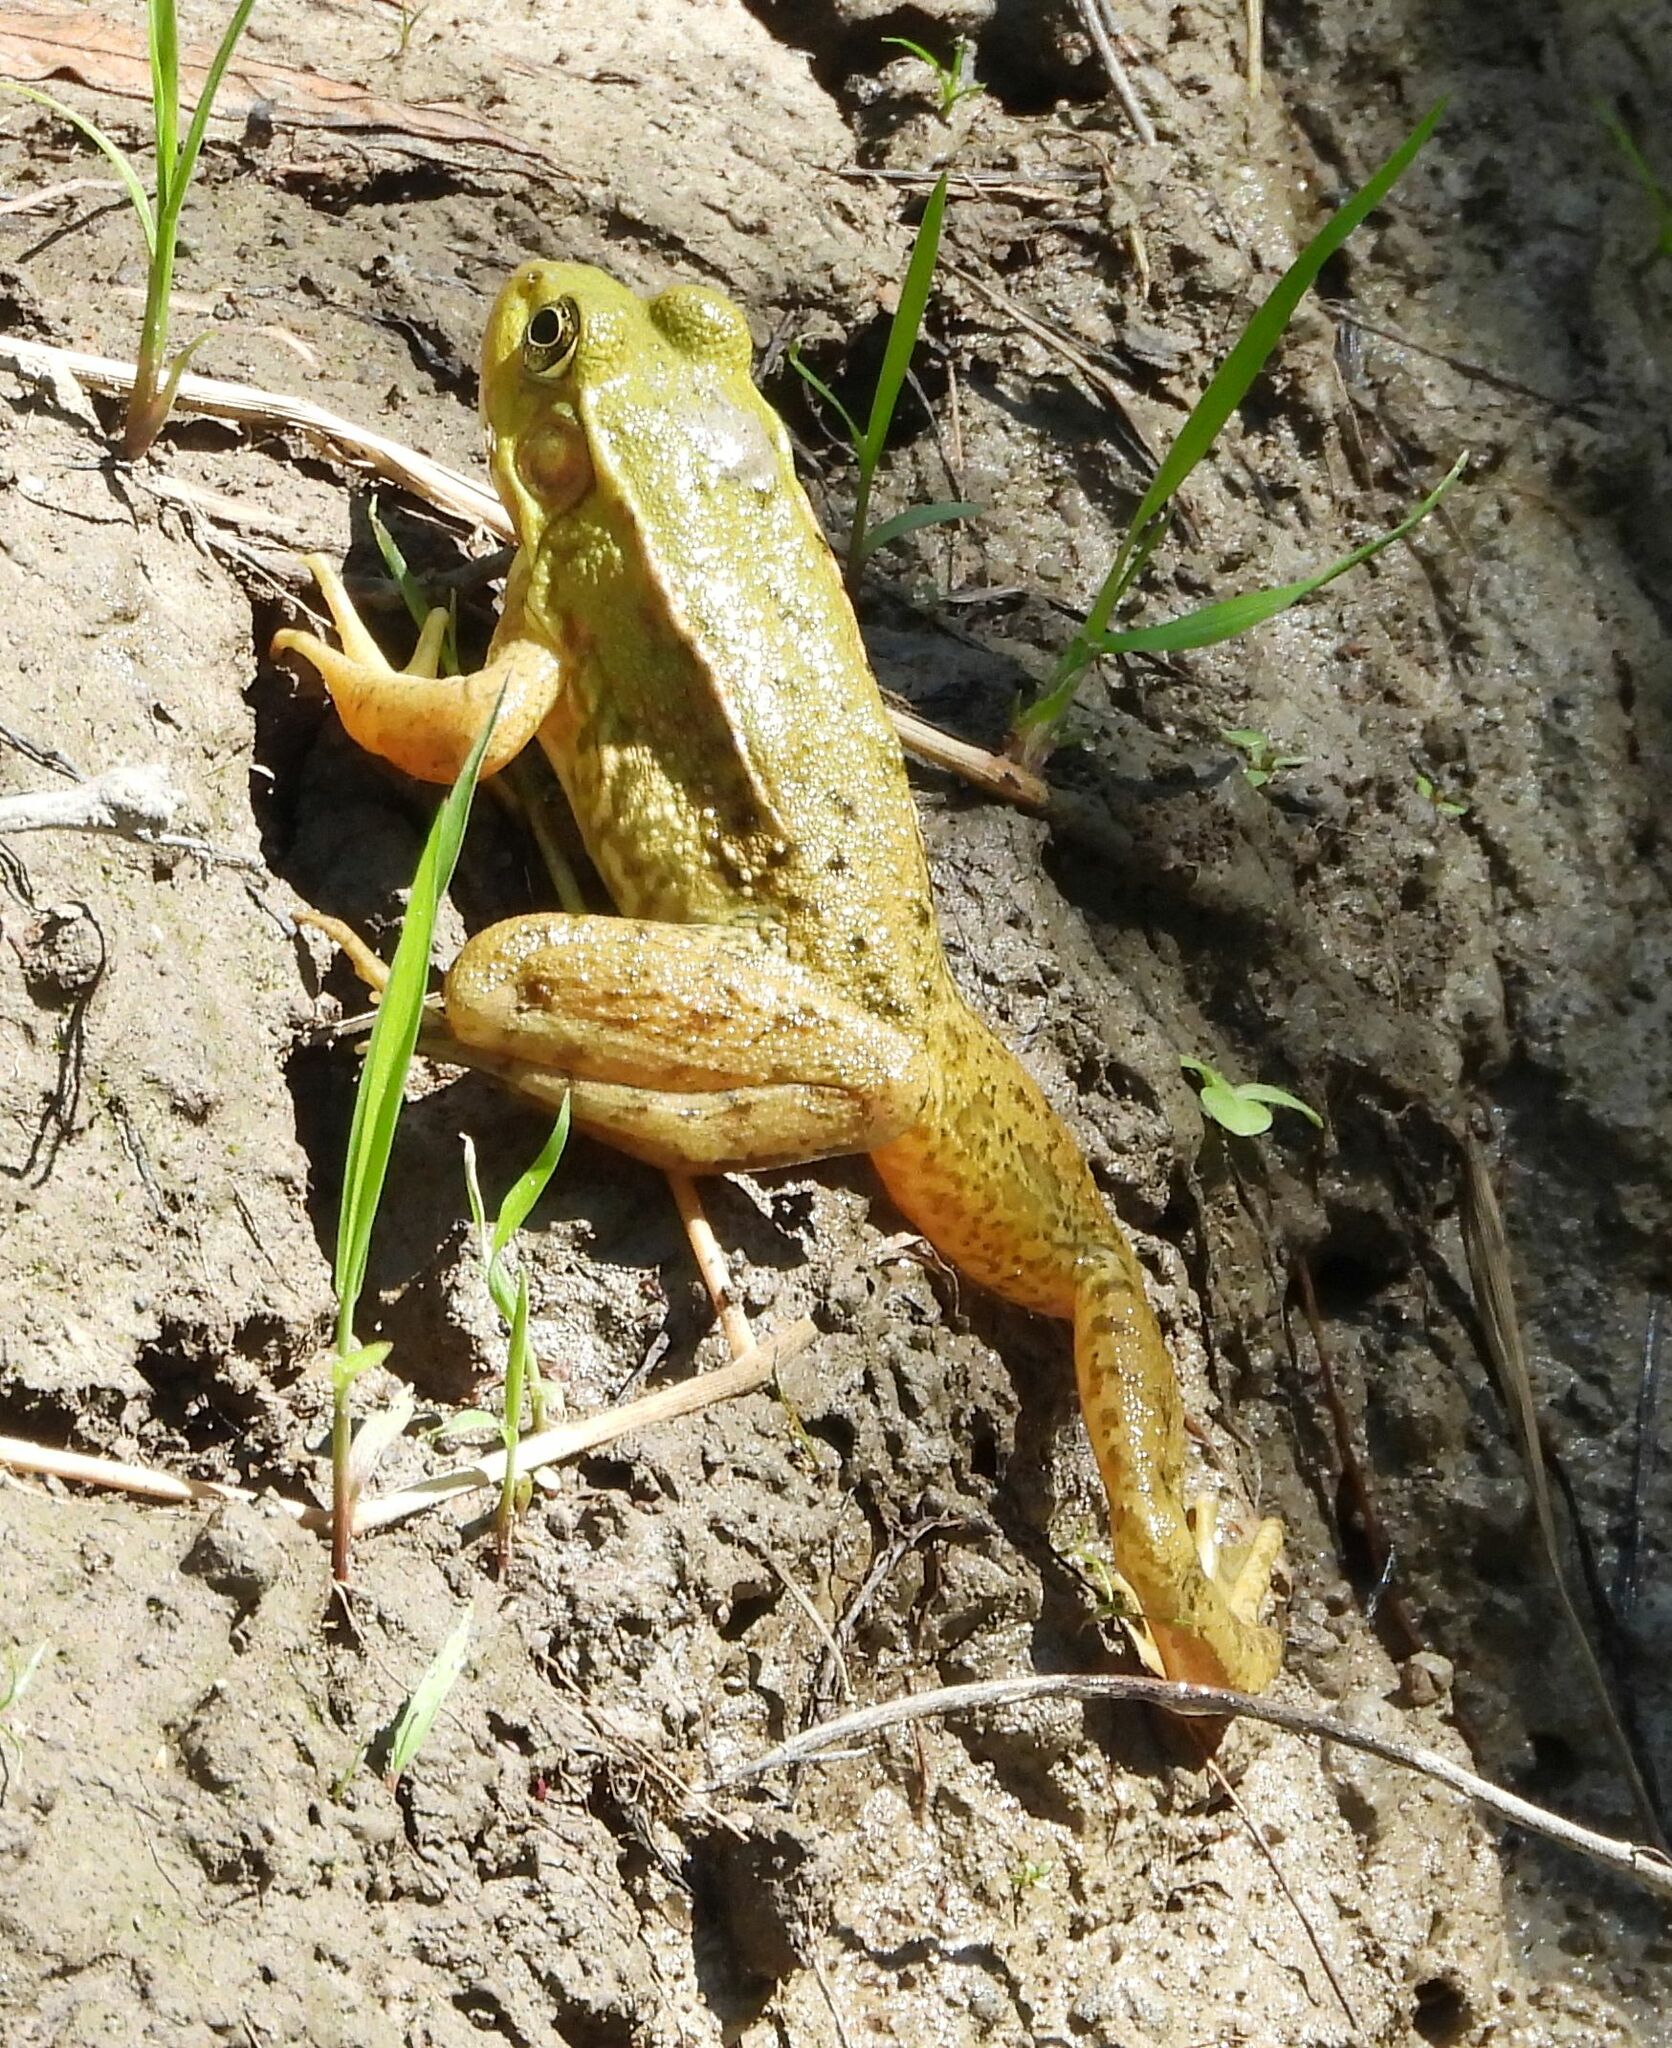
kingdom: Animalia
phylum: Chordata
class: Amphibia
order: Anura
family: Ranidae
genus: Lithobates
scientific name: Lithobates clamitans
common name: Green frog
